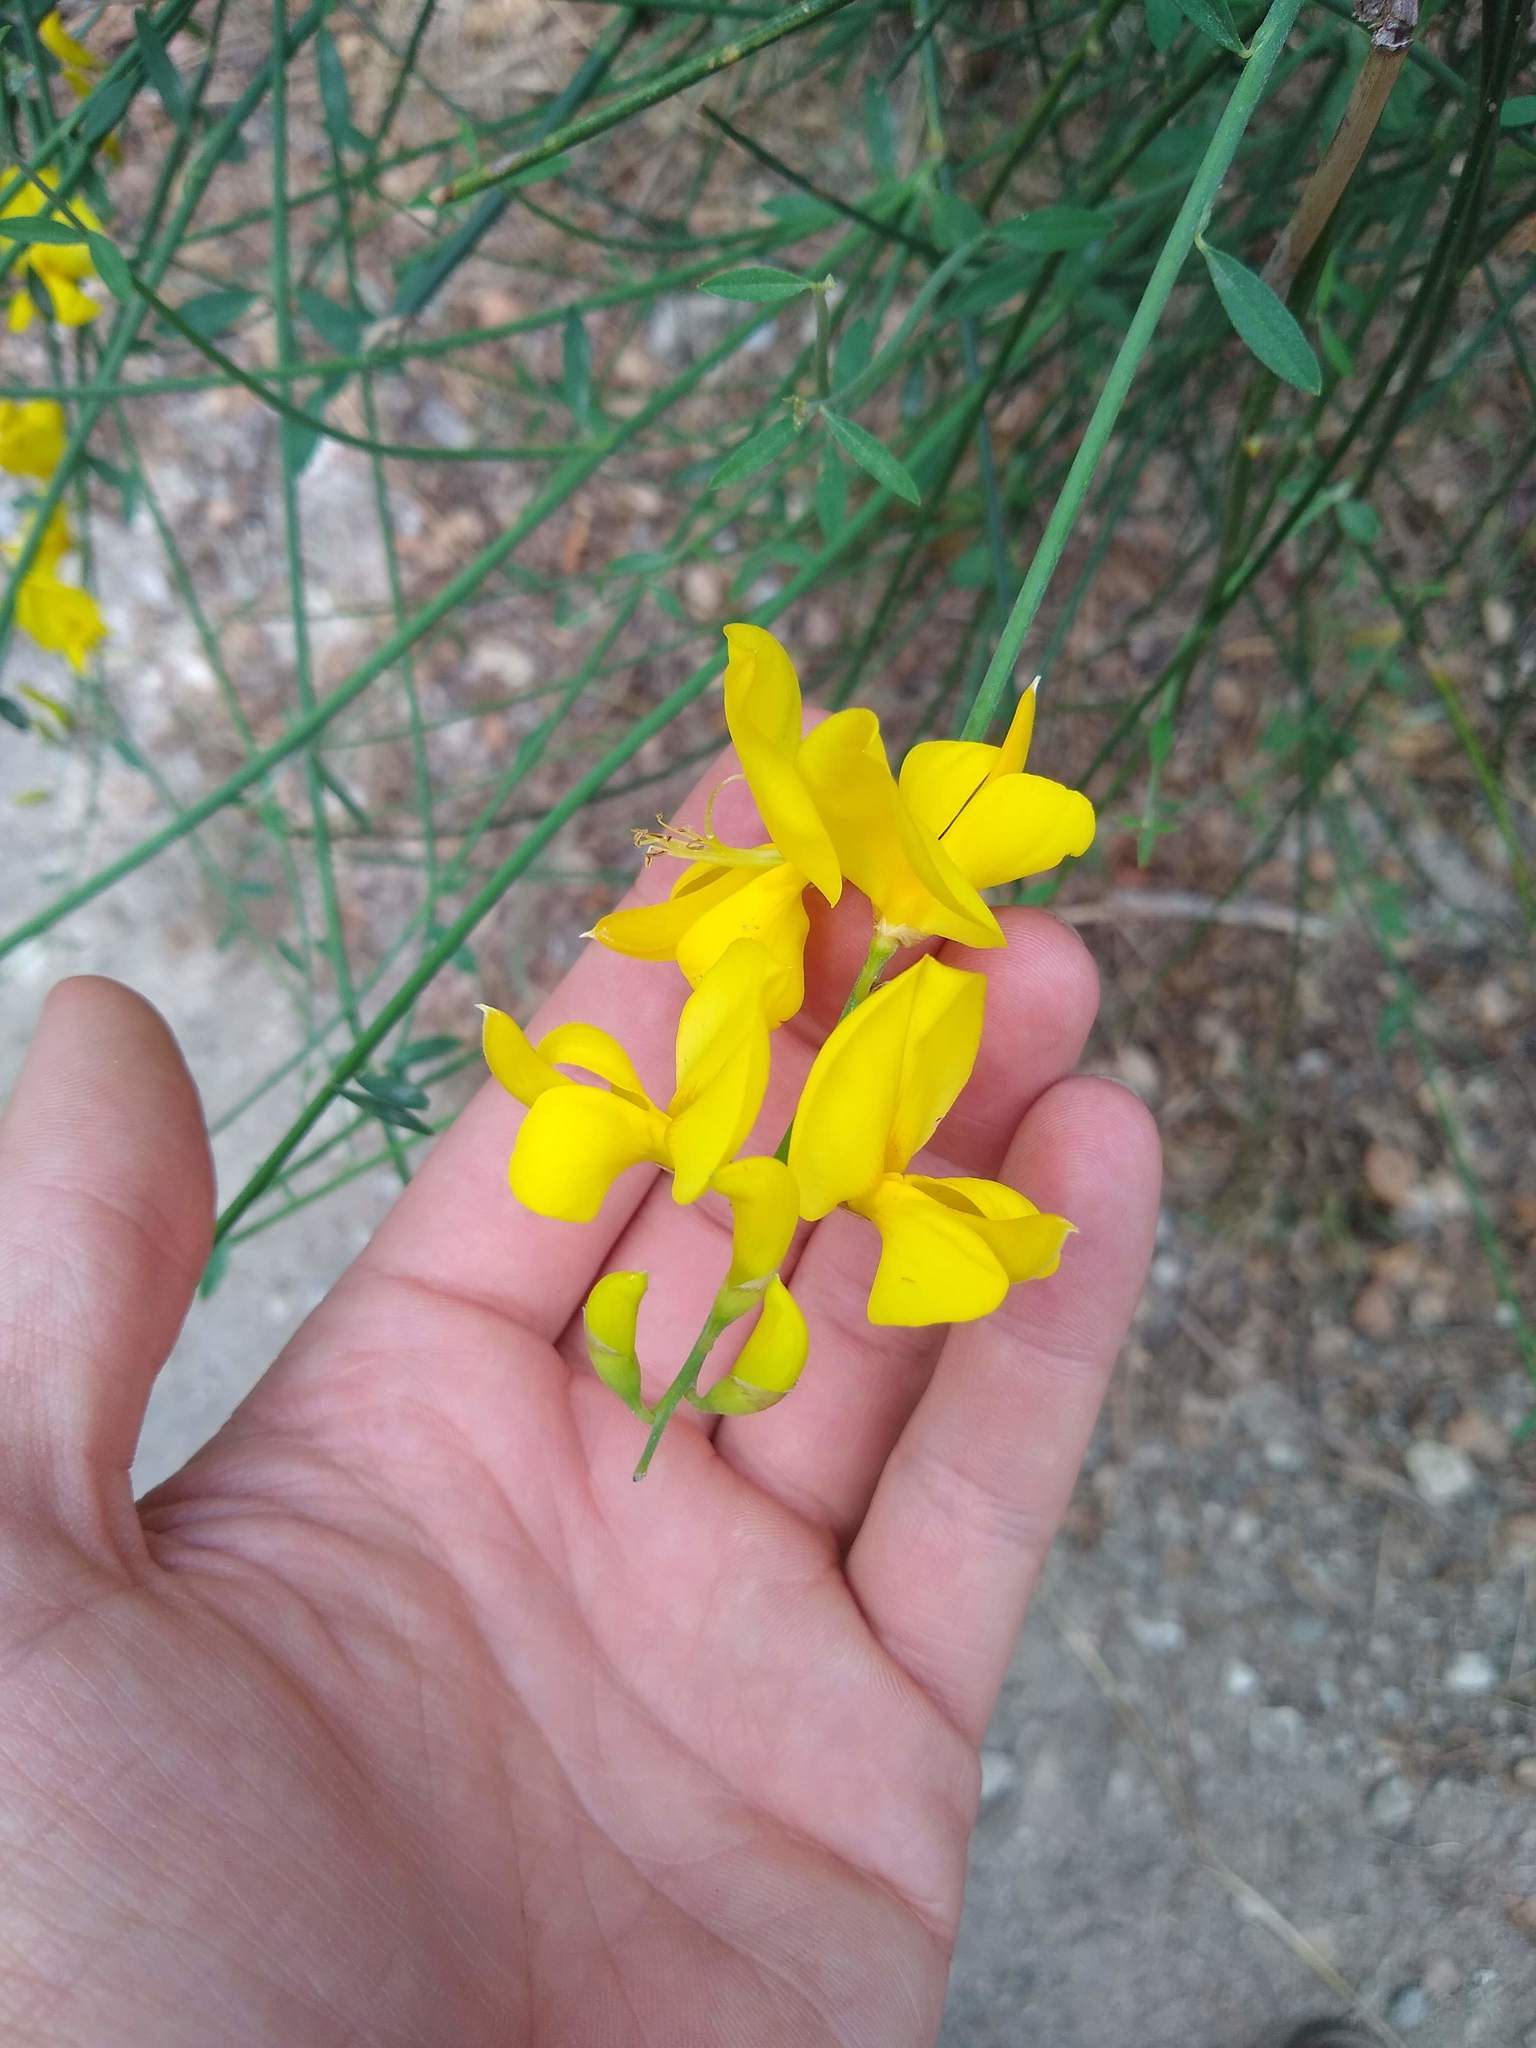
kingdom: Plantae
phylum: Tracheophyta
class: Magnoliopsida
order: Fabales
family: Fabaceae
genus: Spartium
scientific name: Spartium junceum
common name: Spanish broom
